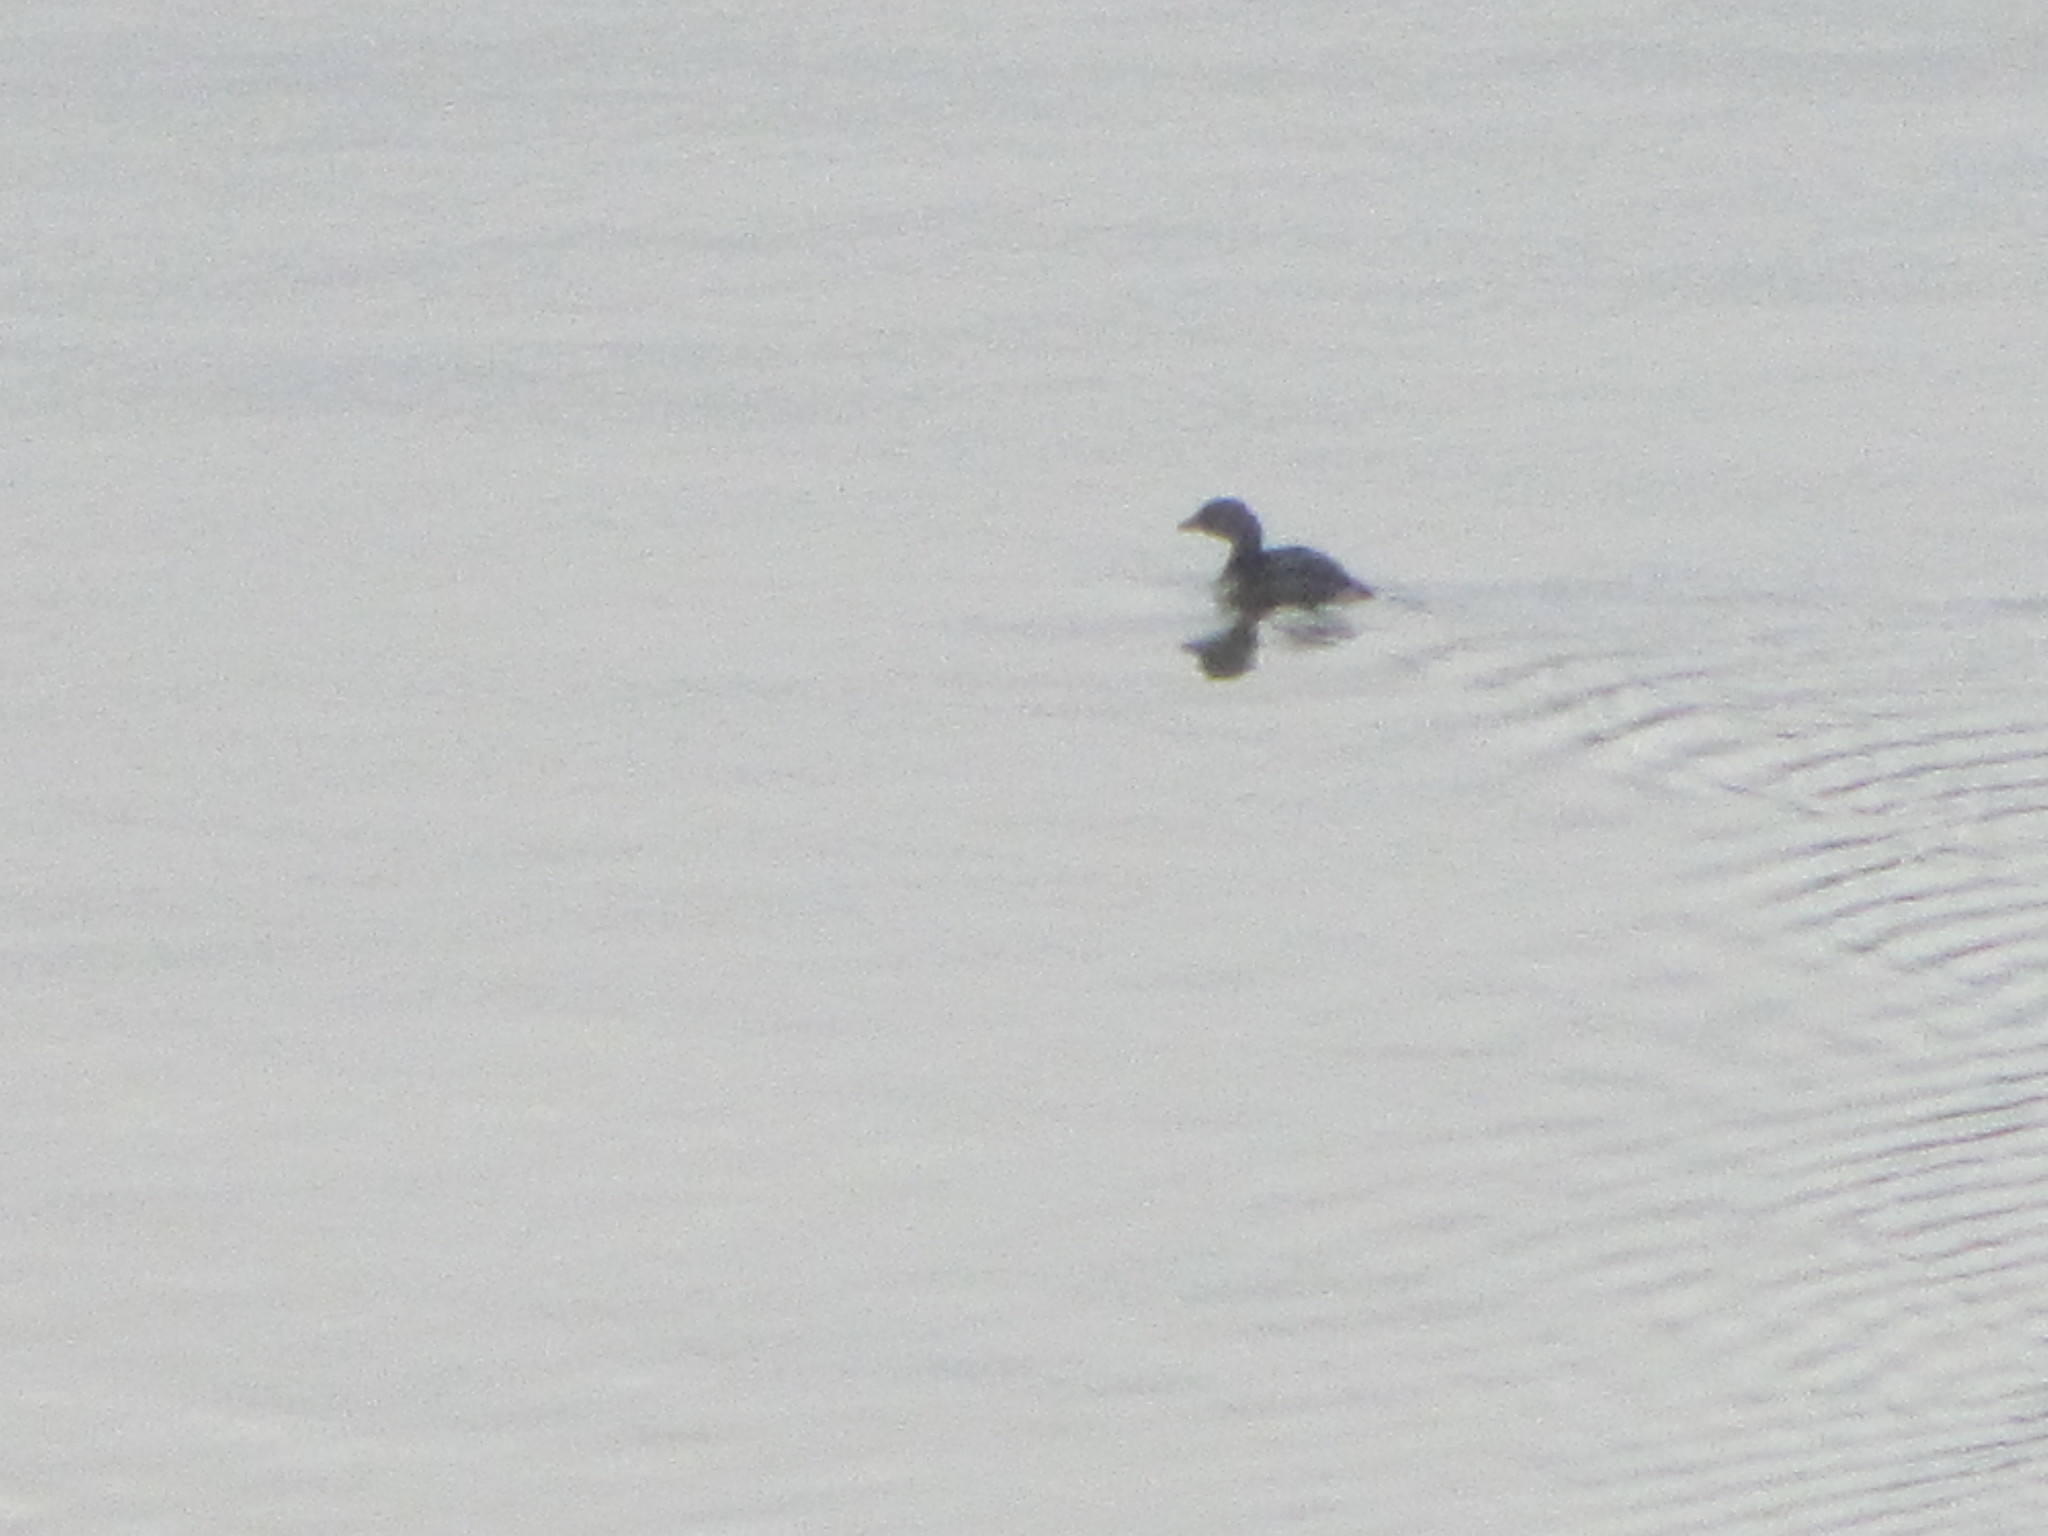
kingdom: Animalia
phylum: Chordata
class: Aves
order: Podicipediformes
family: Podicipedidae
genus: Podilymbus
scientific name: Podilymbus podiceps
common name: Pied-billed grebe
